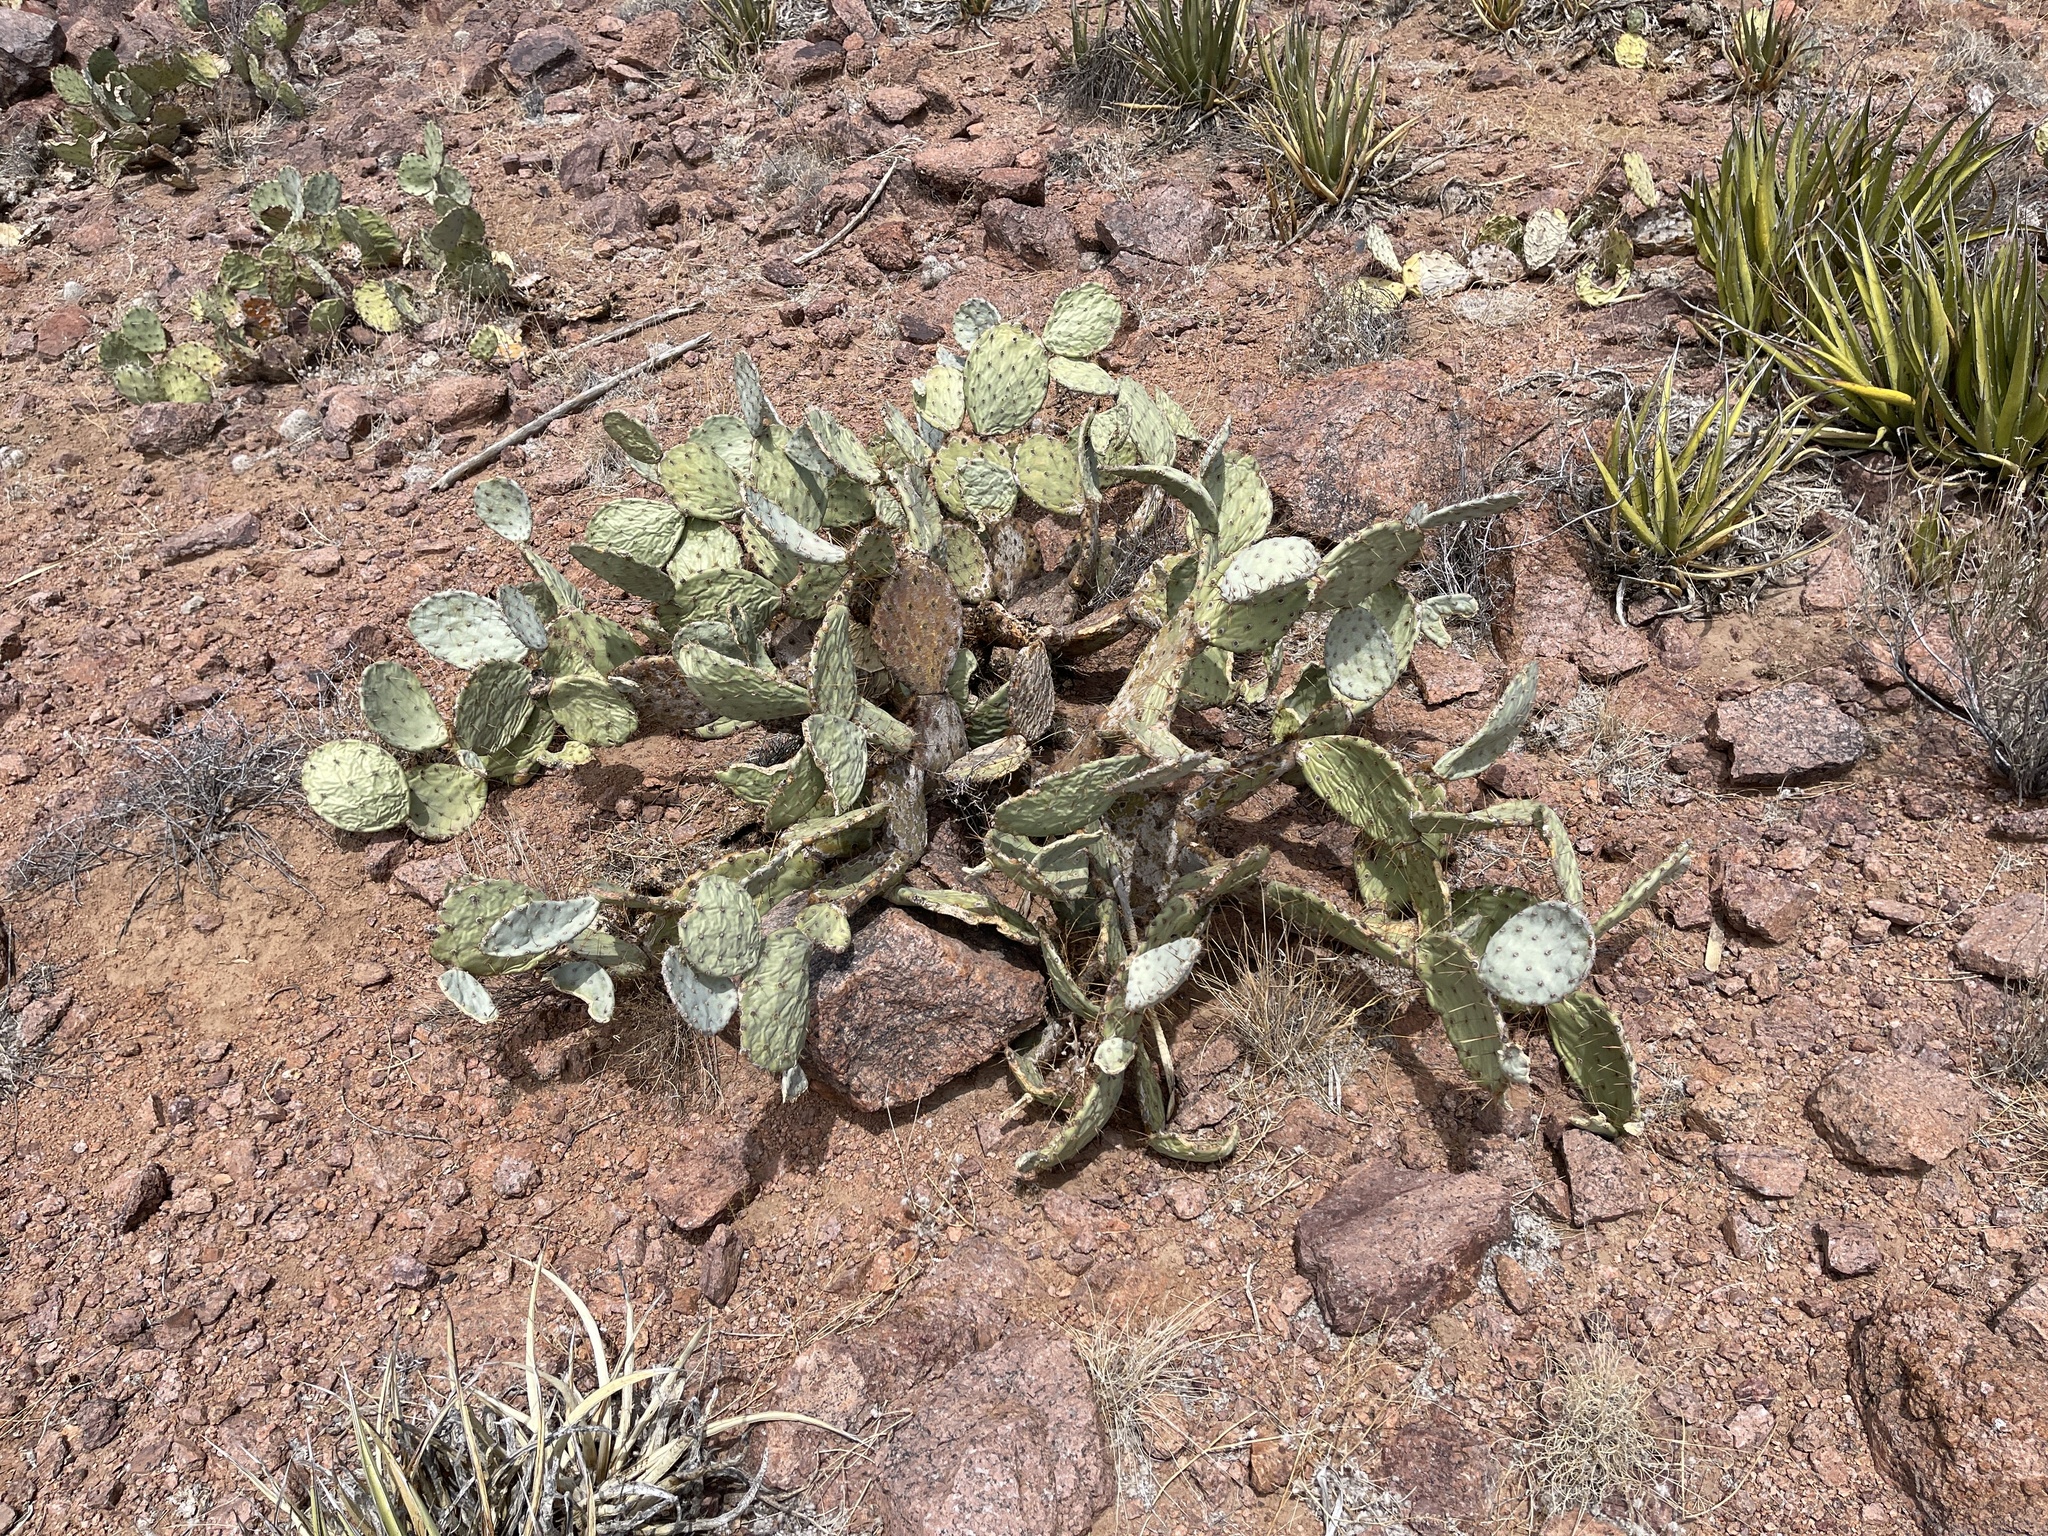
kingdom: Plantae
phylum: Tracheophyta
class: Magnoliopsida
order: Caryophyllales
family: Cactaceae
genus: Opuntia
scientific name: Opuntia engelmannii
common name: Cactus-apple
